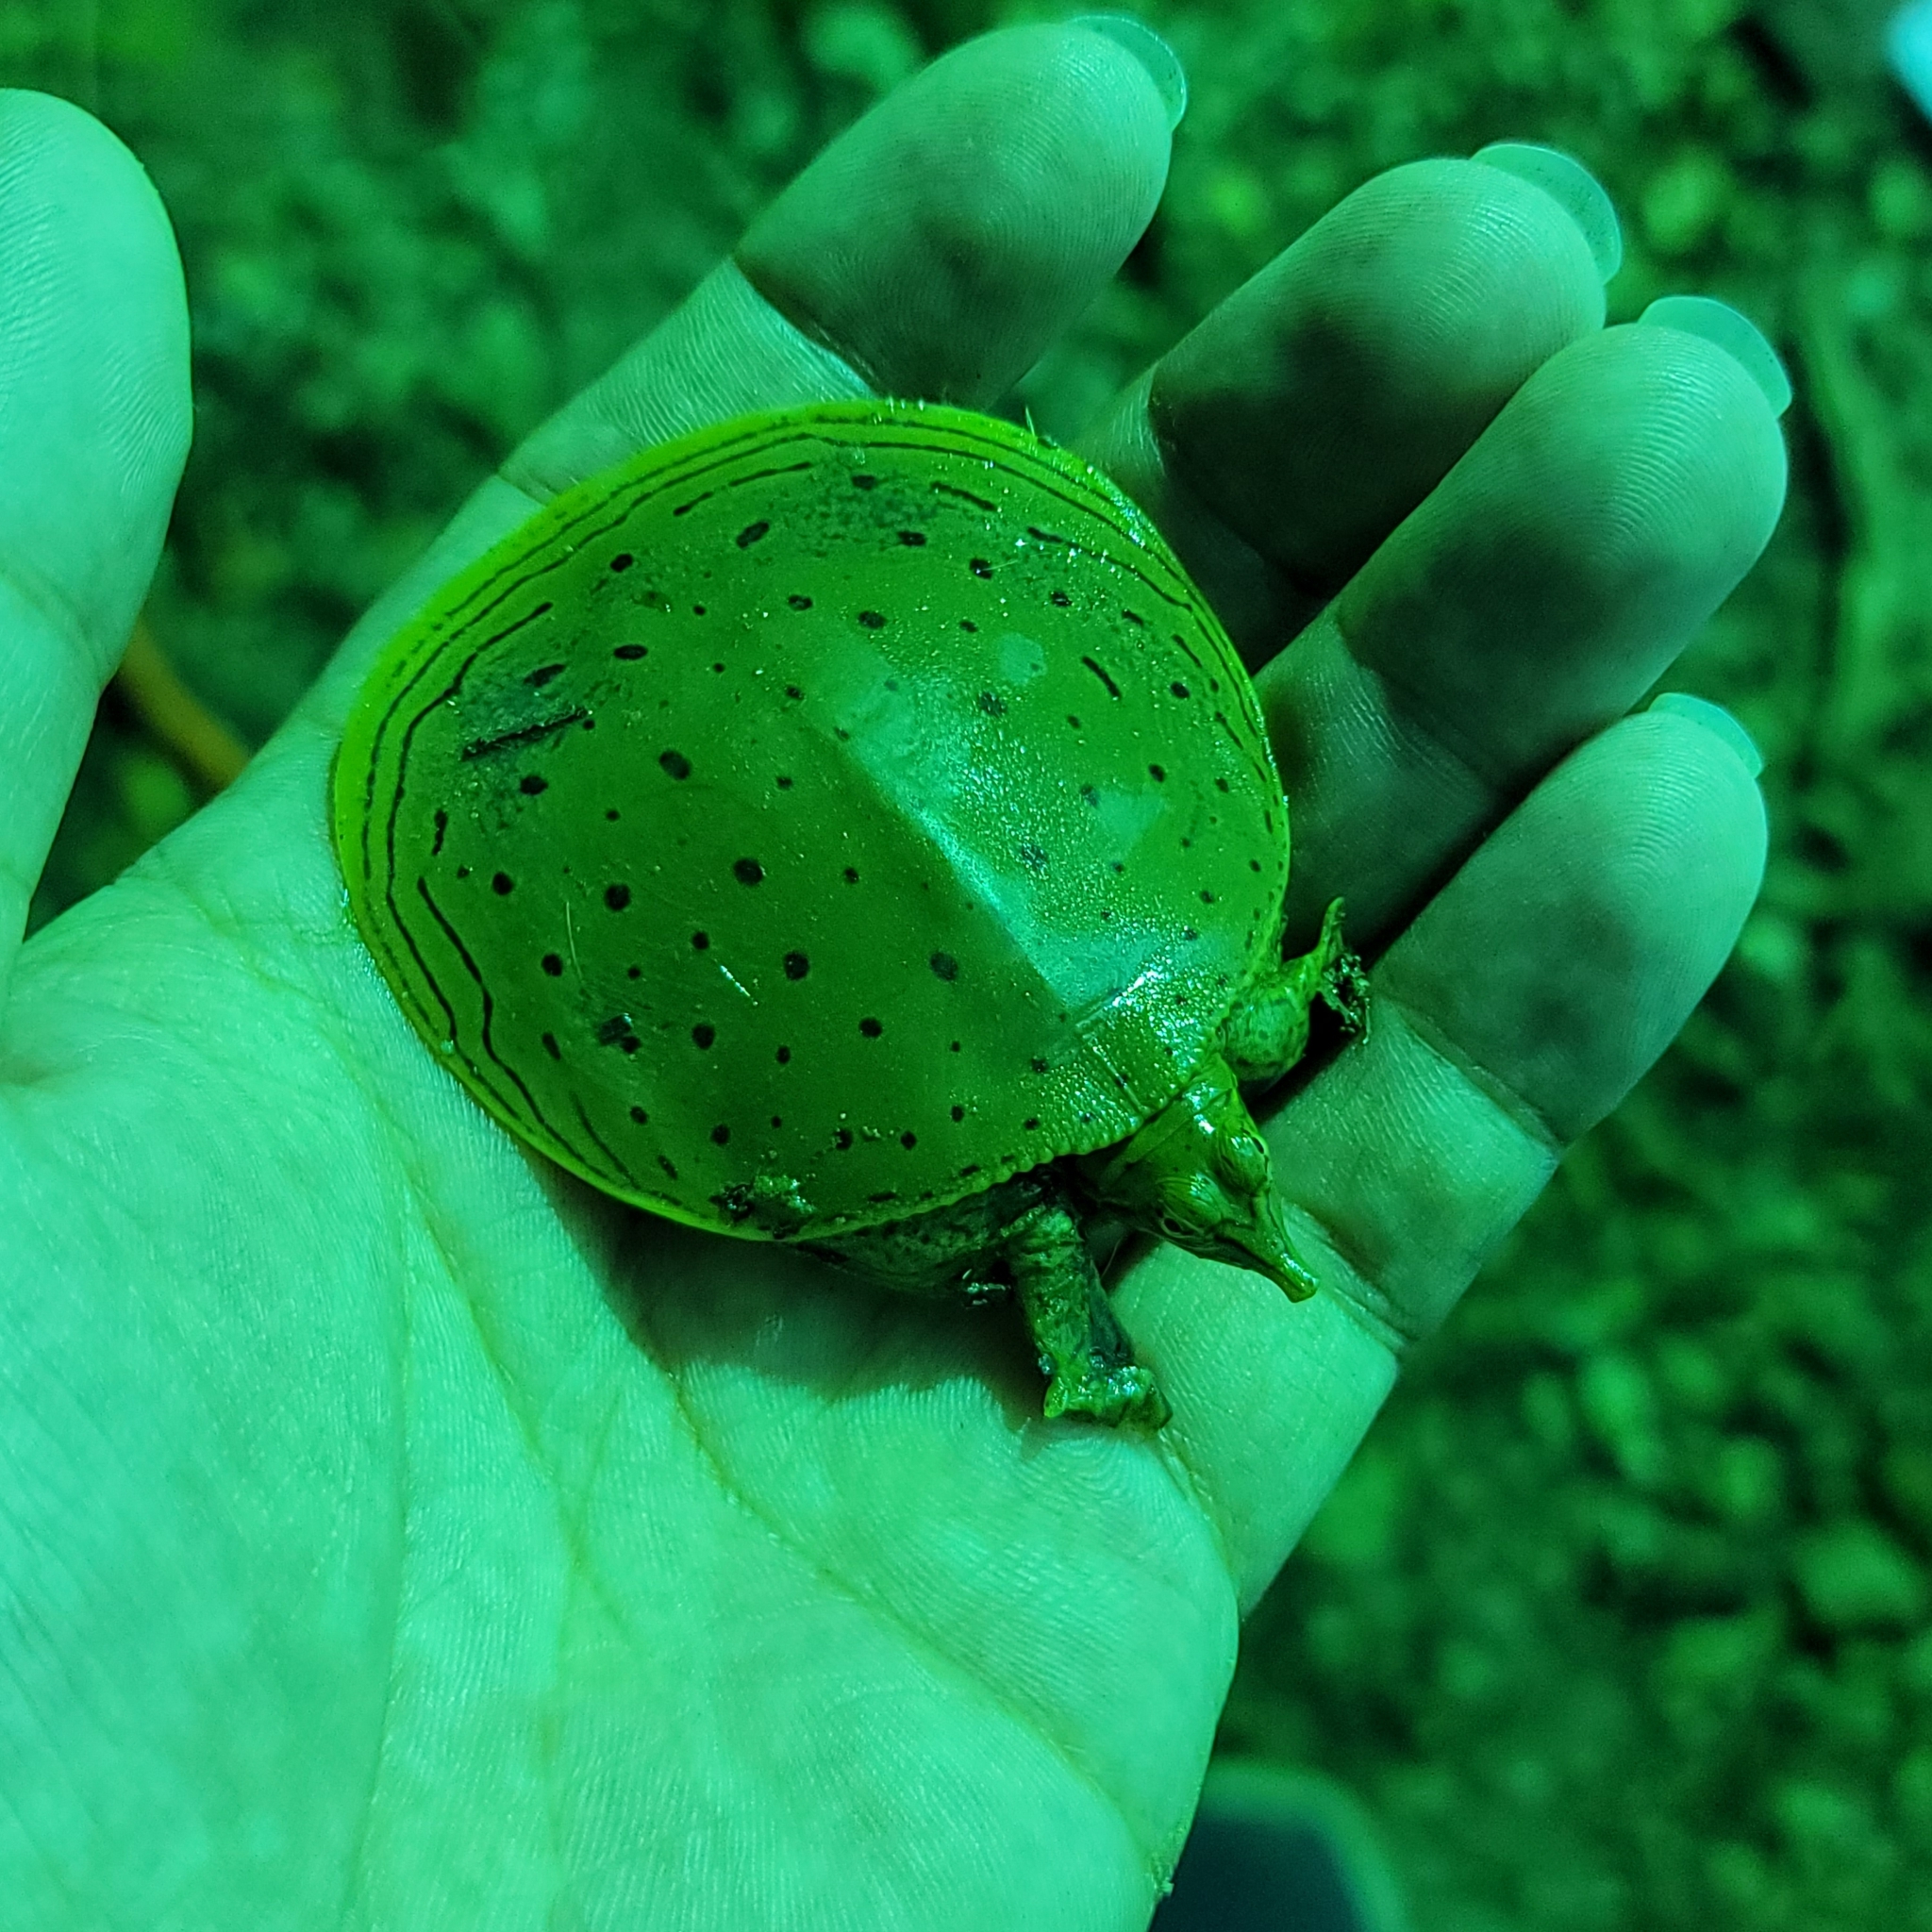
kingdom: Animalia
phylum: Chordata
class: Testudines
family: Trionychidae
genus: Apalone
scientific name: Apalone spinifera
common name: Spiny softshell turtle
